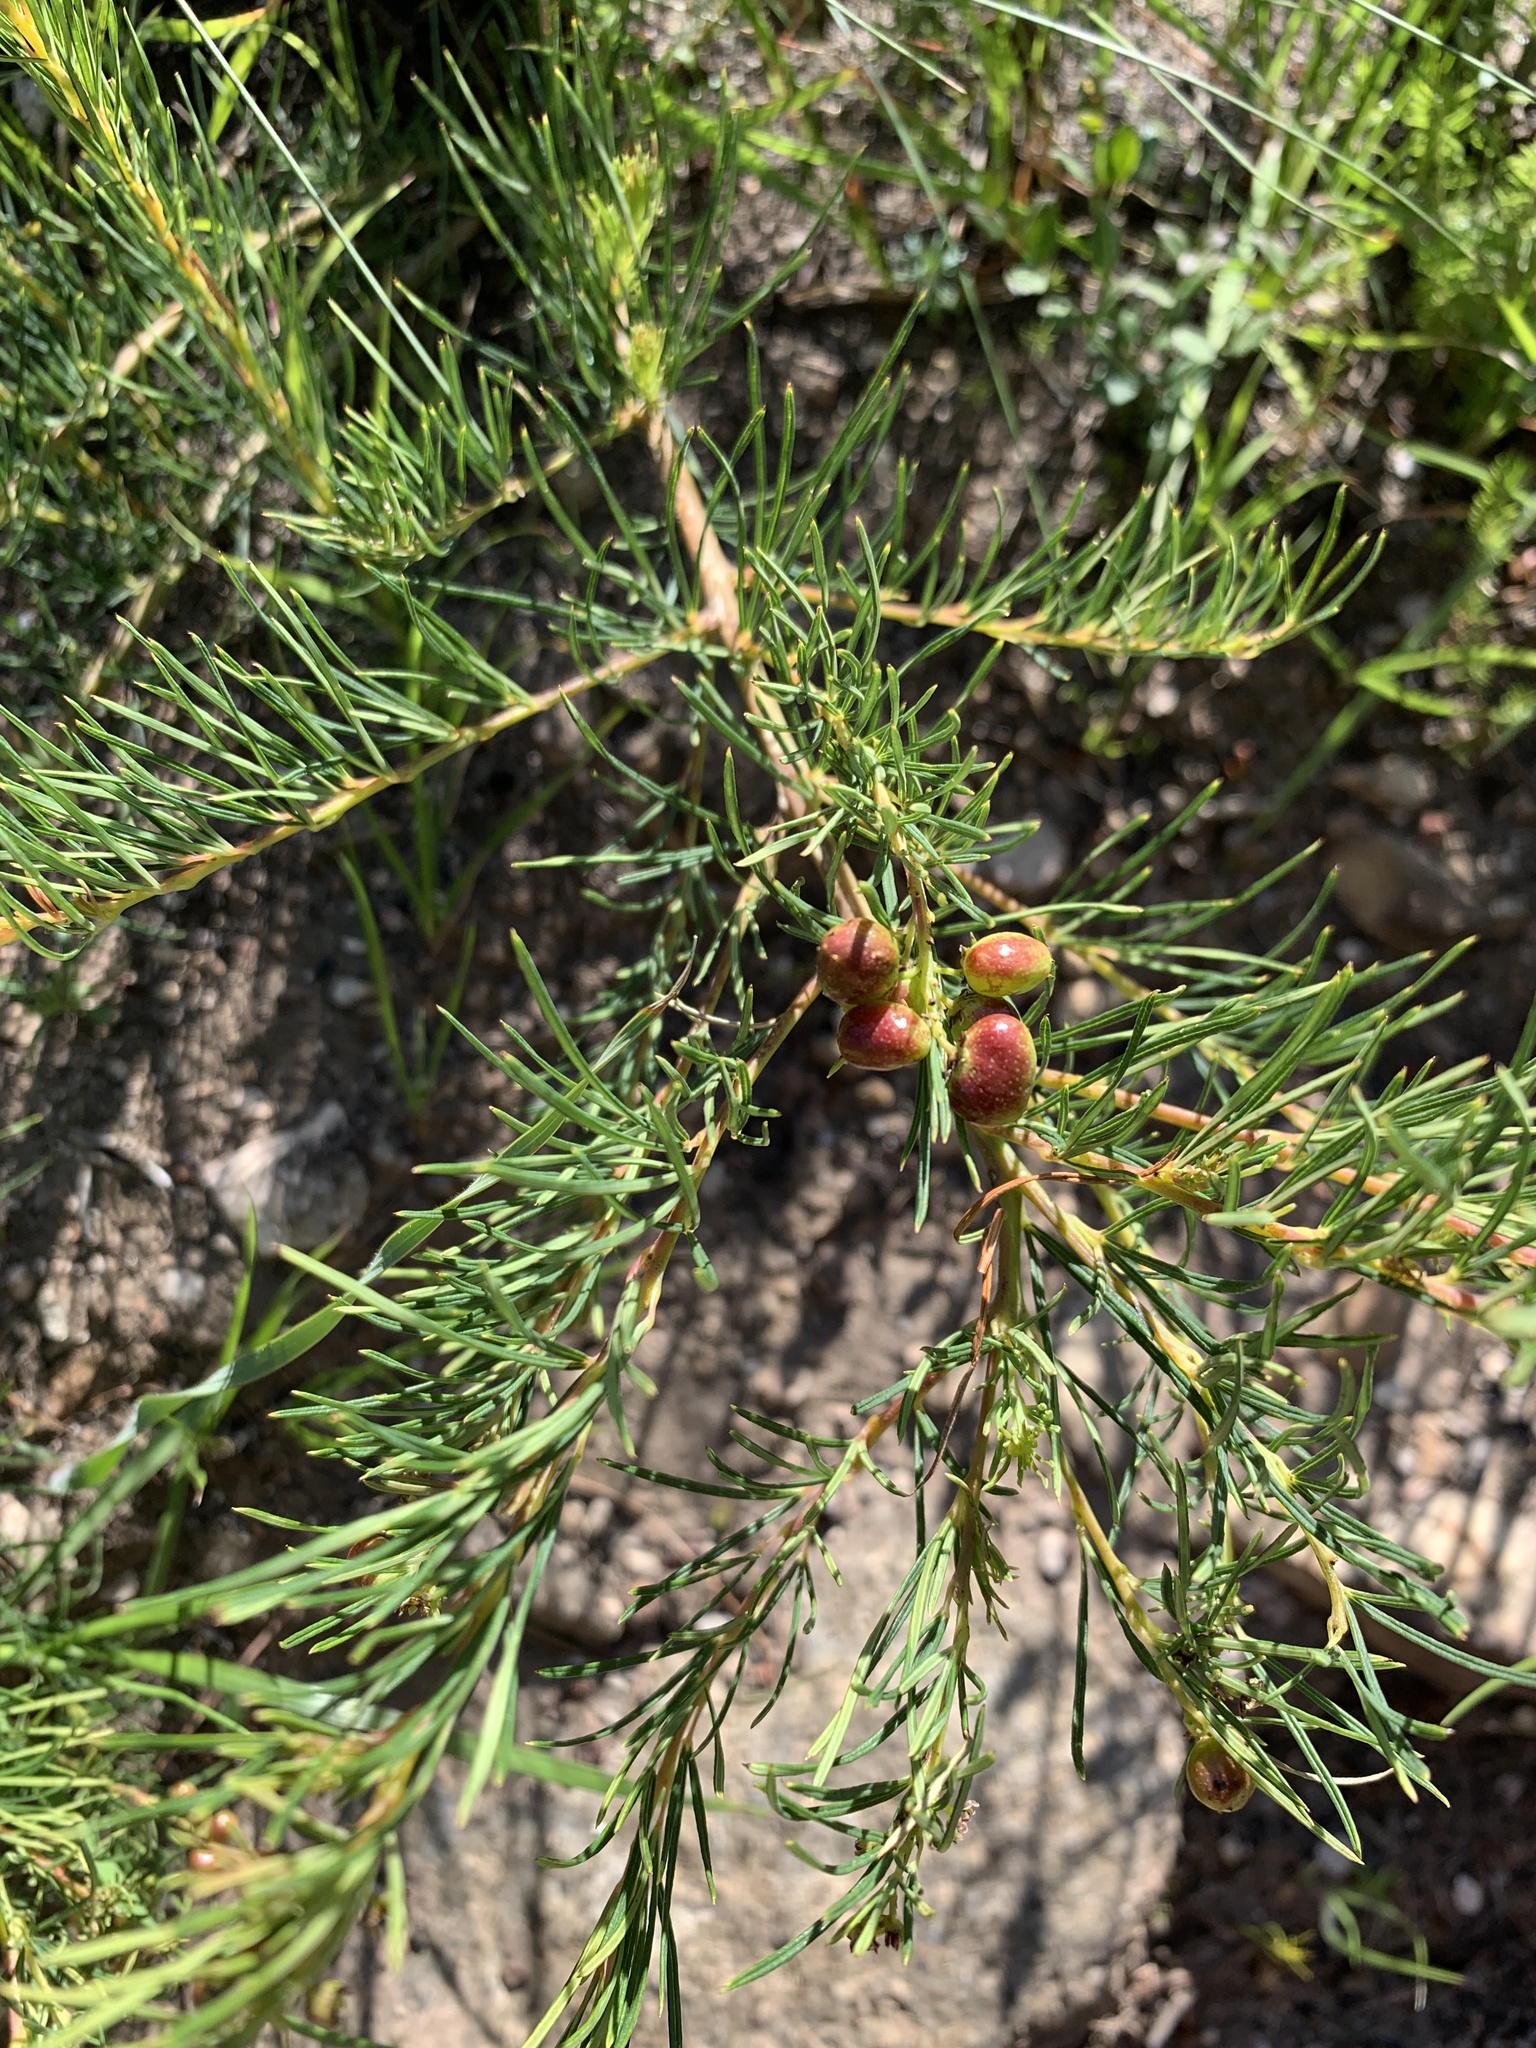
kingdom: Plantae
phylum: Tracheophyta
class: Magnoliopsida
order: Sapindales
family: Anacardiaceae
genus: Searsia
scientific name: Searsia rosmarinifolia
